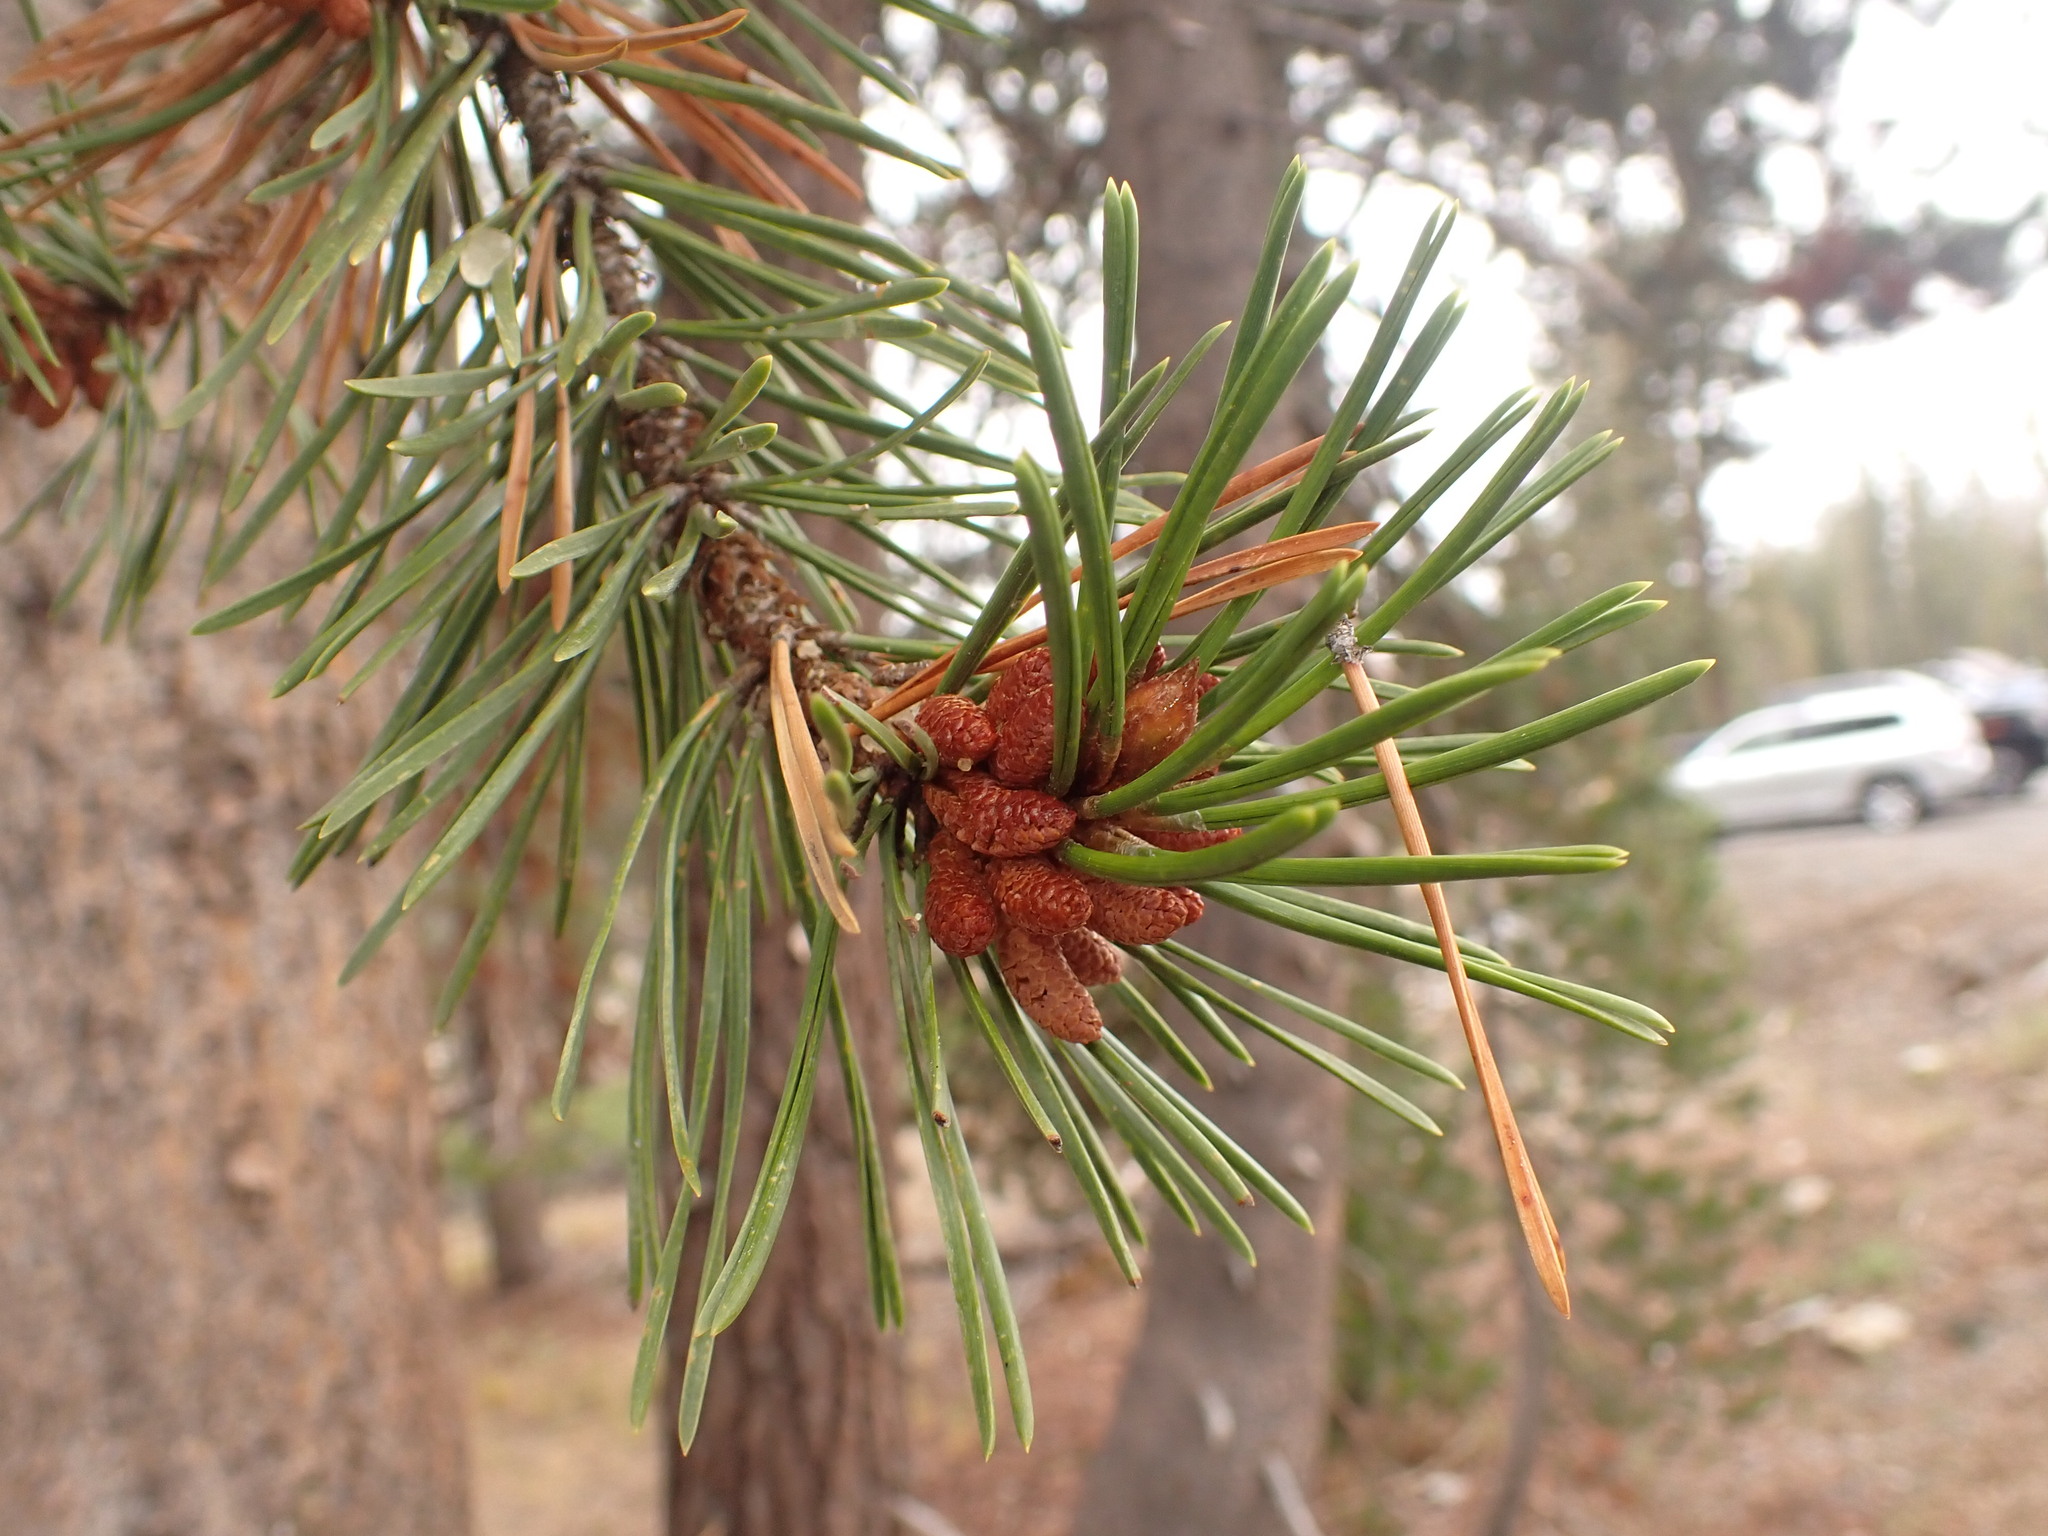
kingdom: Plantae
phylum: Tracheophyta
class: Pinopsida
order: Pinales
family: Pinaceae
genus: Pinus
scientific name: Pinus contorta
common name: Lodgepole pine
